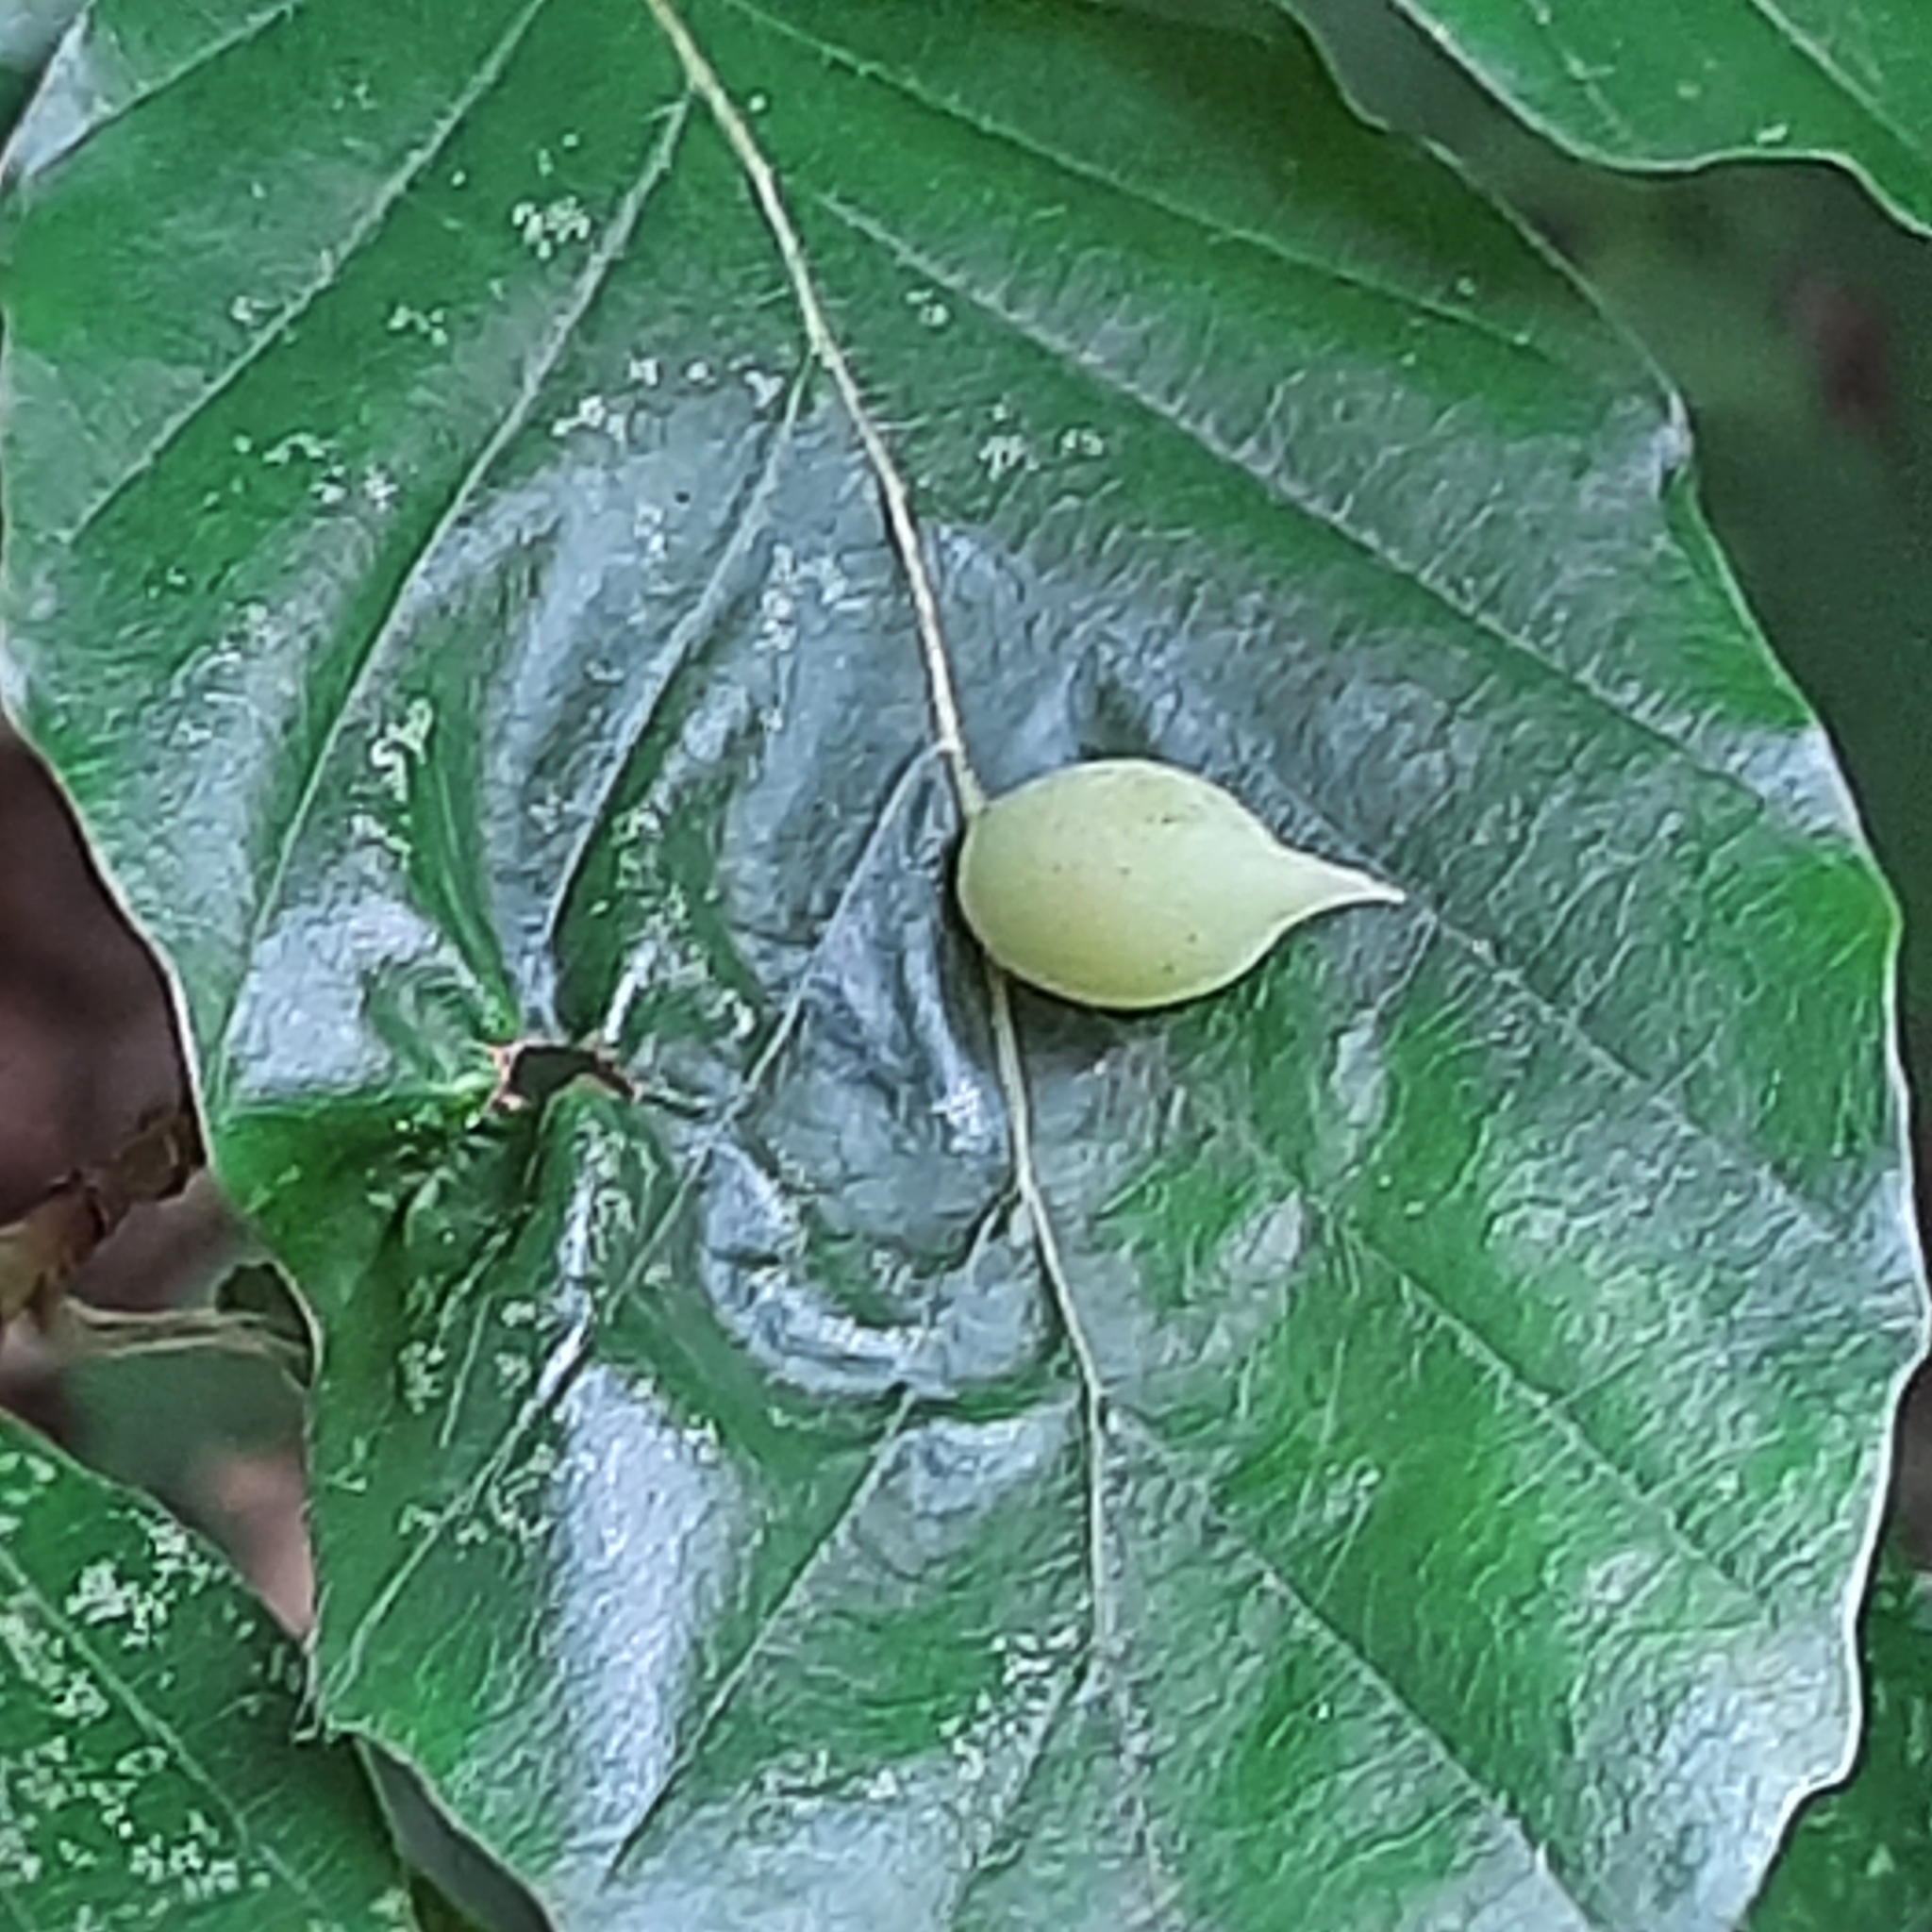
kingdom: Animalia
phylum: Arthropoda
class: Insecta
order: Diptera
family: Cecidomyiidae
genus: Mikiola
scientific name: Mikiola fagi
